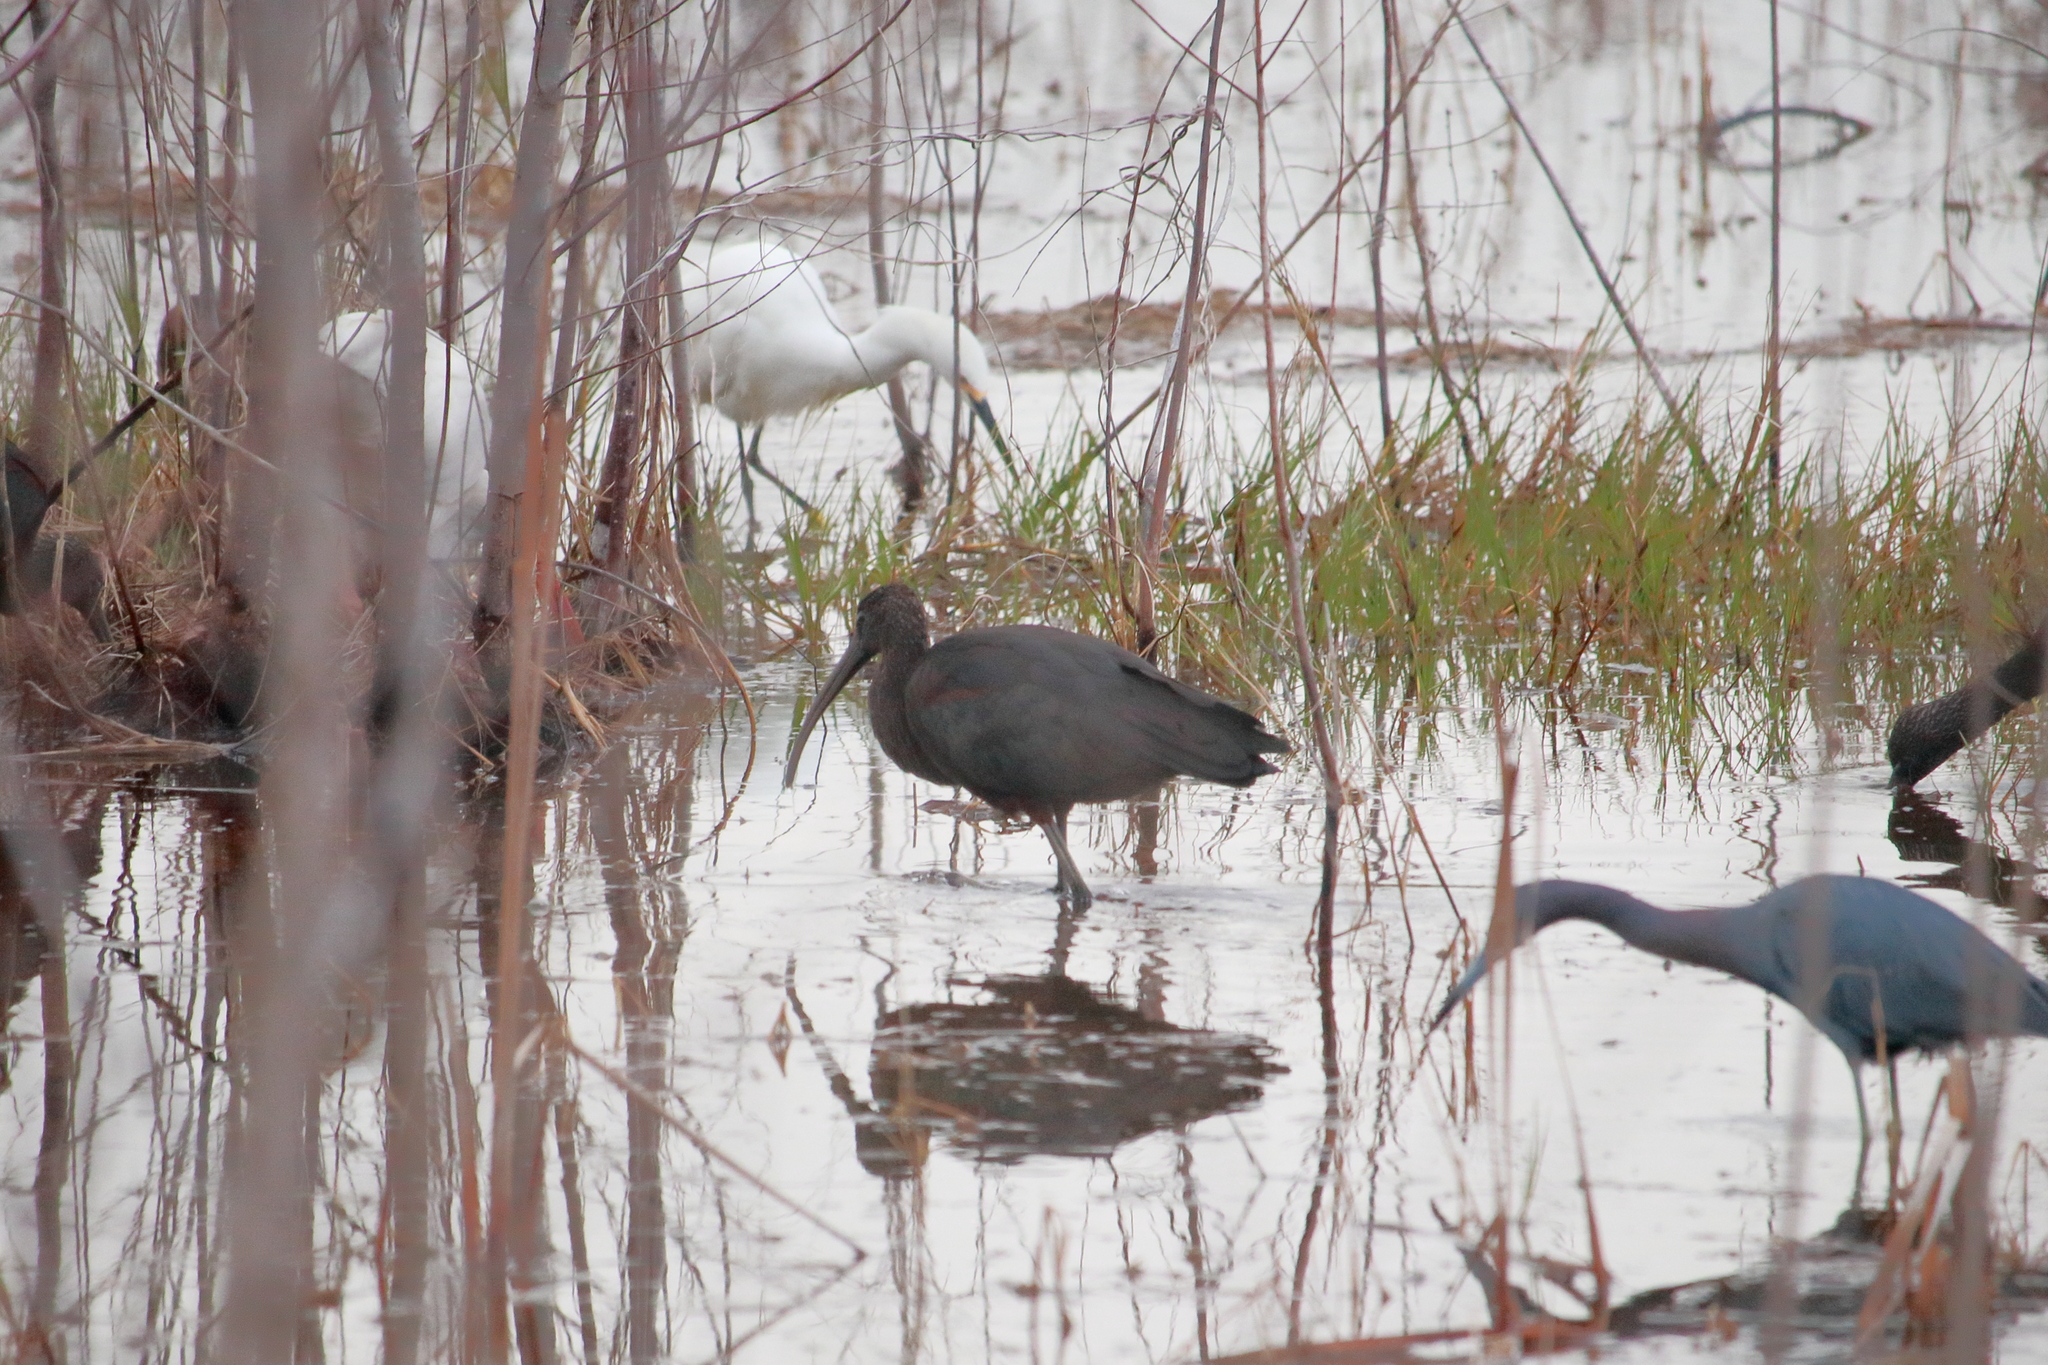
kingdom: Animalia
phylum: Chordata
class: Aves
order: Pelecaniformes
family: Threskiornithidae
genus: Plegadis
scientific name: Plegadis falcinellus
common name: Glossy ibis
